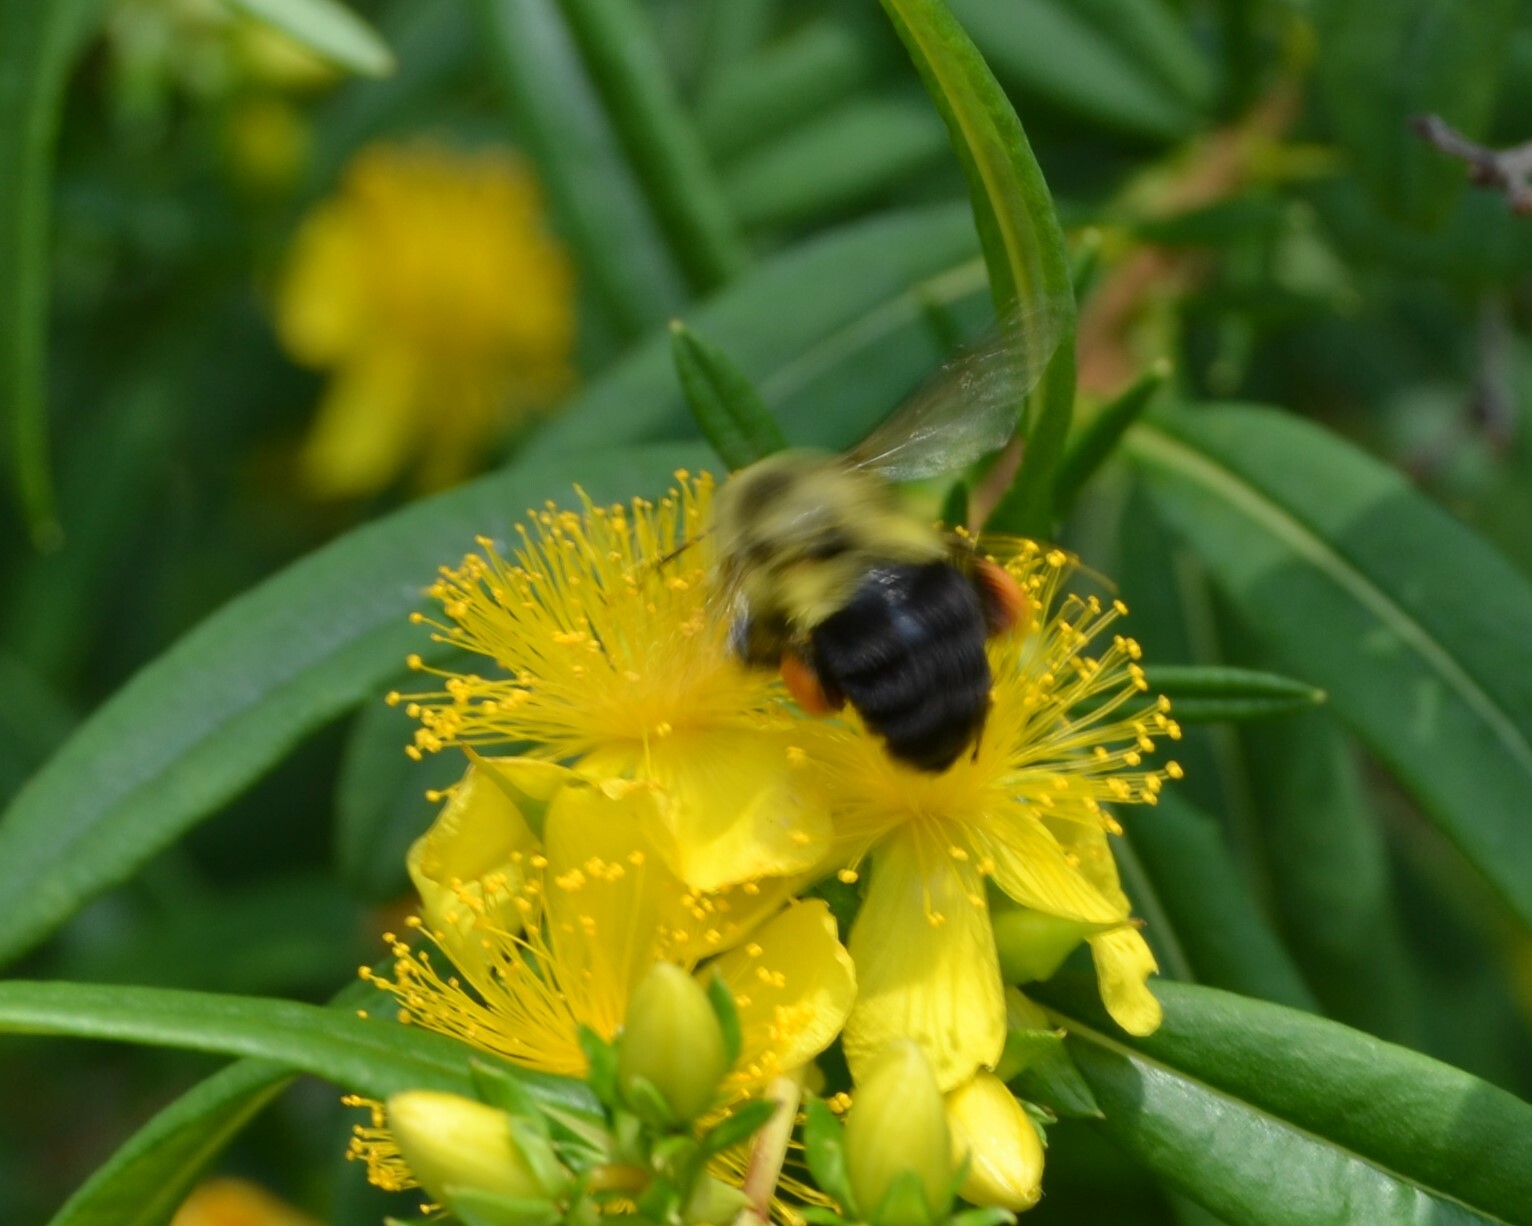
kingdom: Animalia
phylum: Arthropoda
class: Insecta
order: Hymenoptera
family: Apidae
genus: Bombus
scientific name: Bombus impatiens
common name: Common eastern bumble bee
